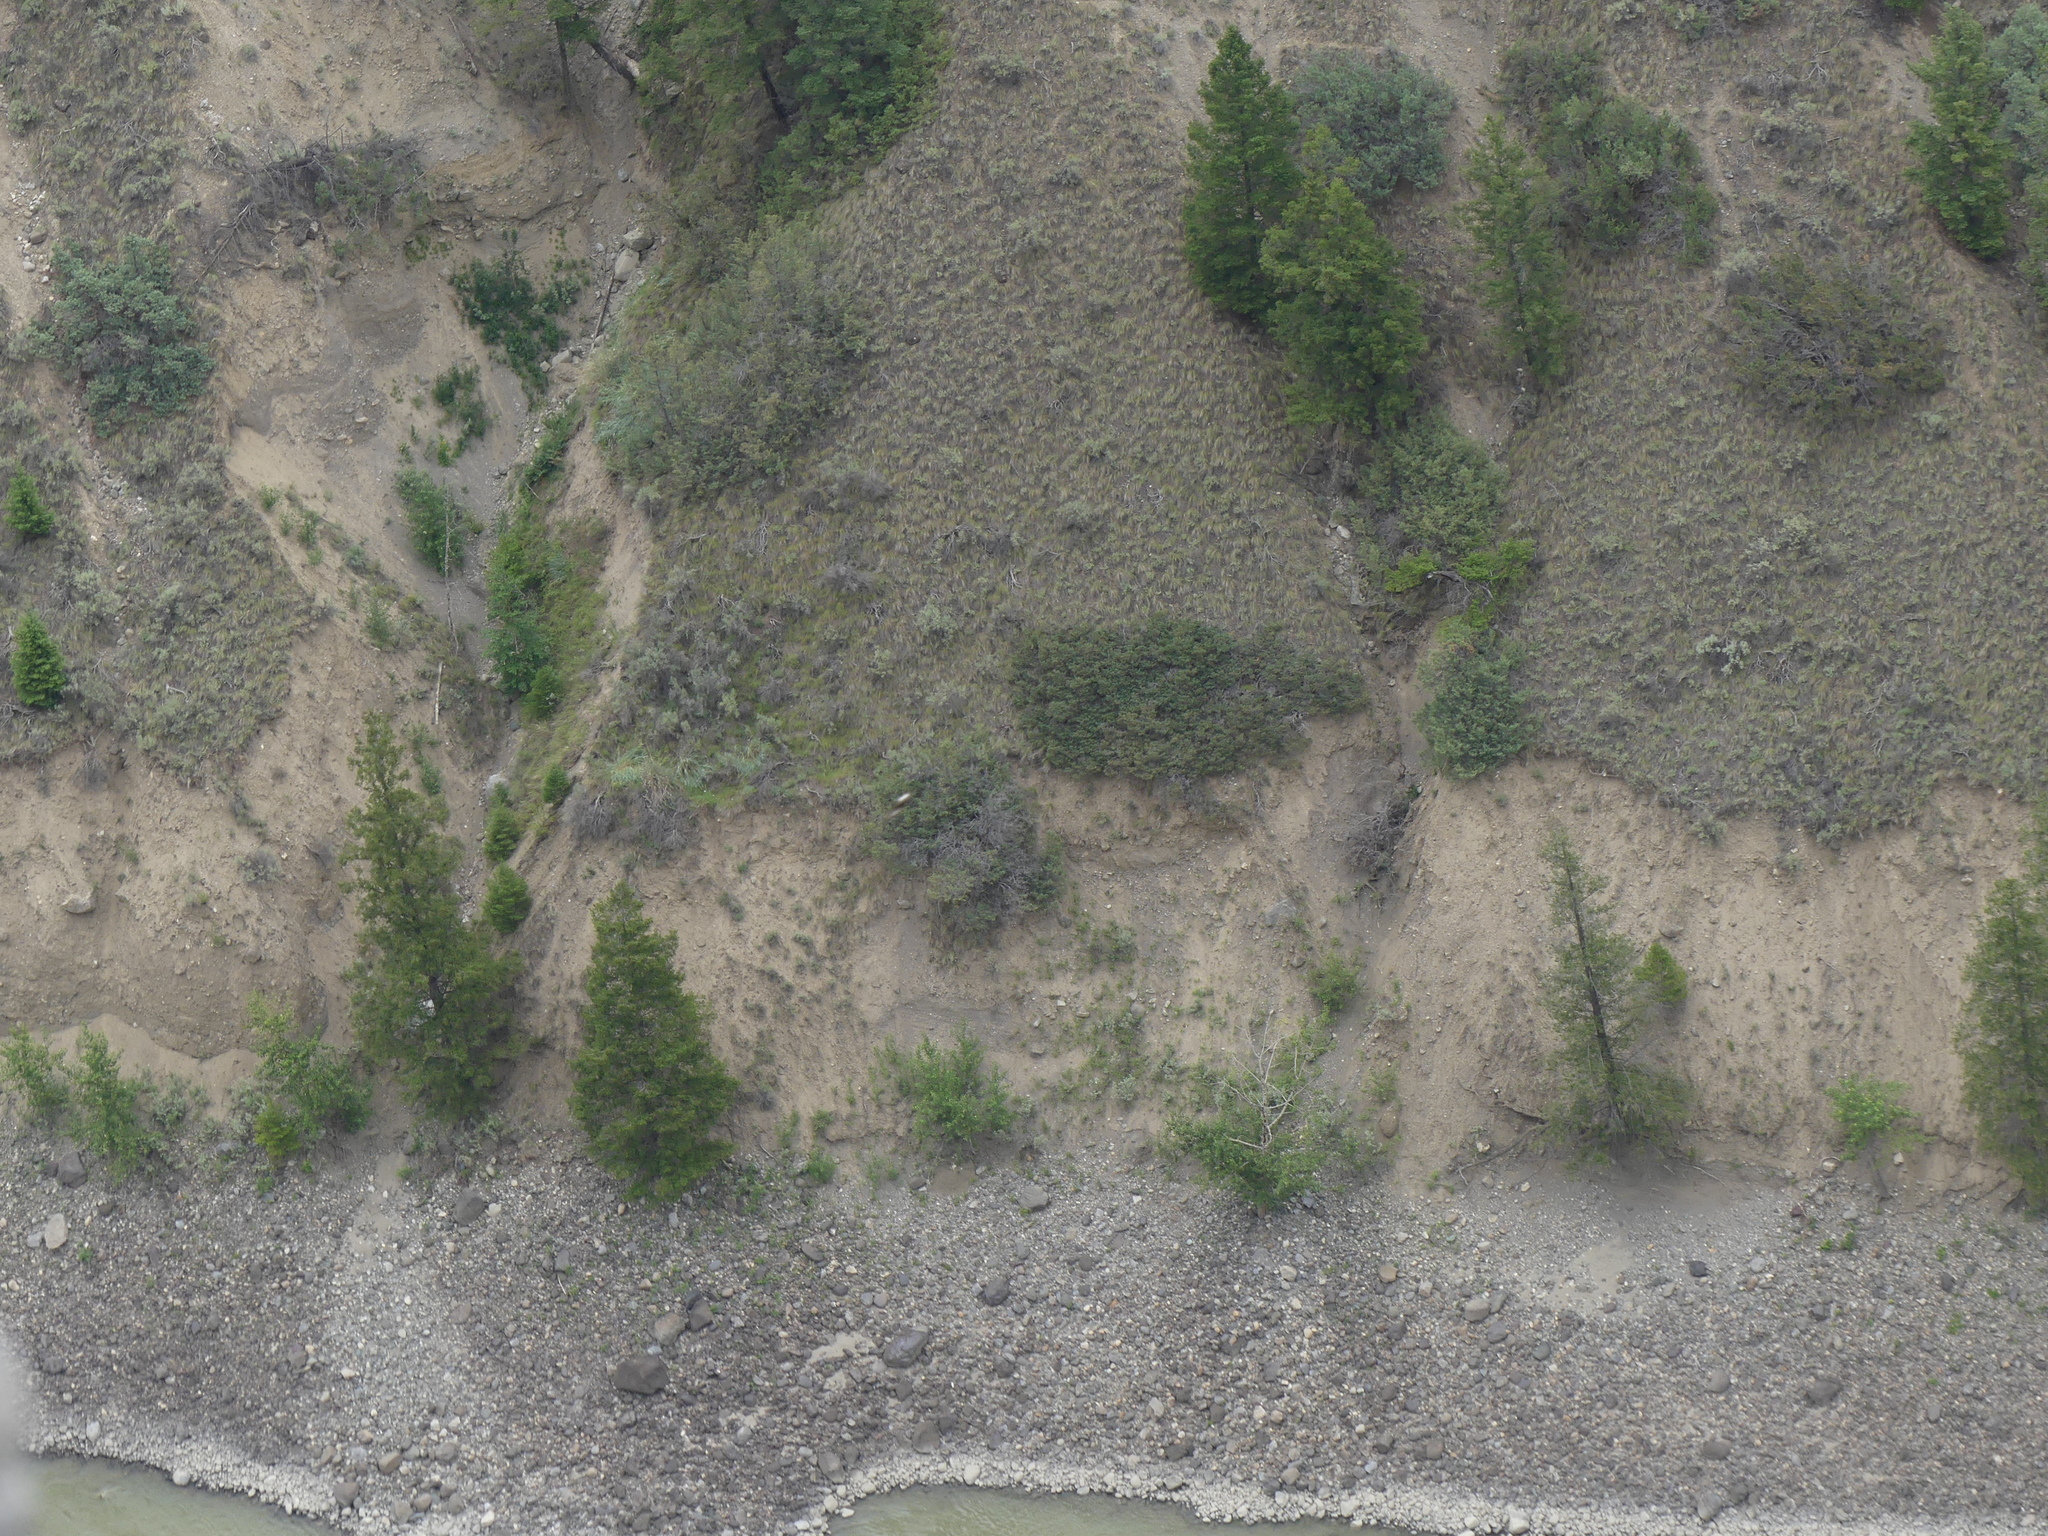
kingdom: Plantae
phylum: Tracheophyta
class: Pinopsida
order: Pinales
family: Cupressaceae
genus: Juniperus
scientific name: Juniperus horizontalis
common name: Creeping juniper
